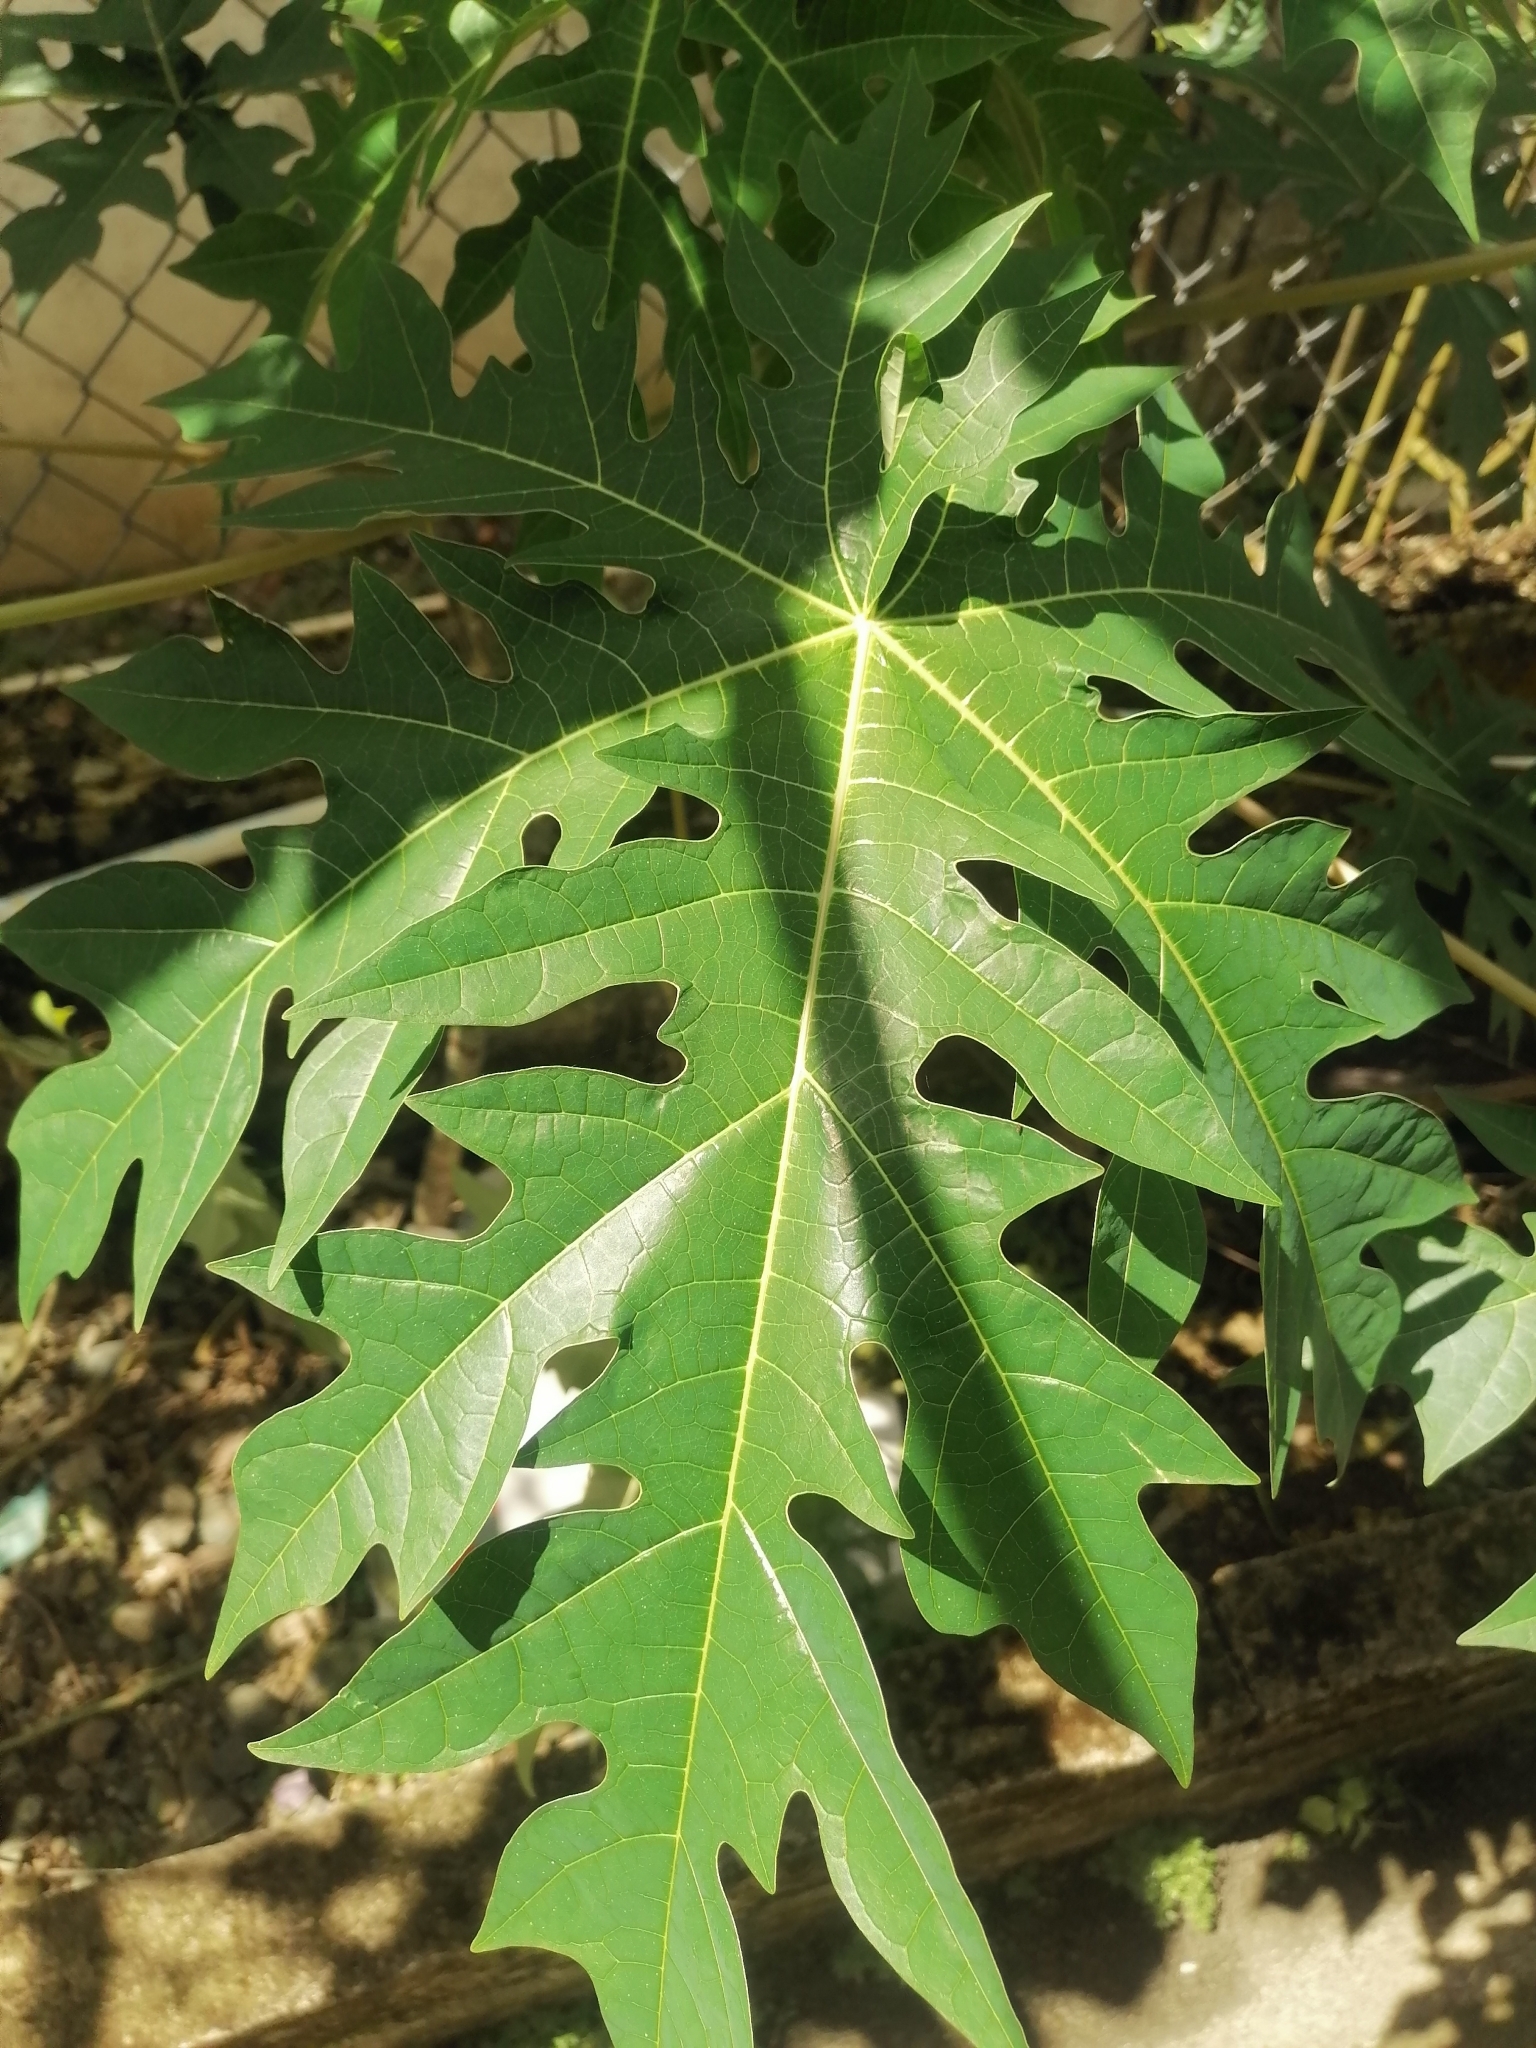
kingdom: Plantae
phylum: Tracheophyta
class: Magnoliopsida
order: Brassicales
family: Caricaceae
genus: Carica
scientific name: Carica papaya
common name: Papaya
